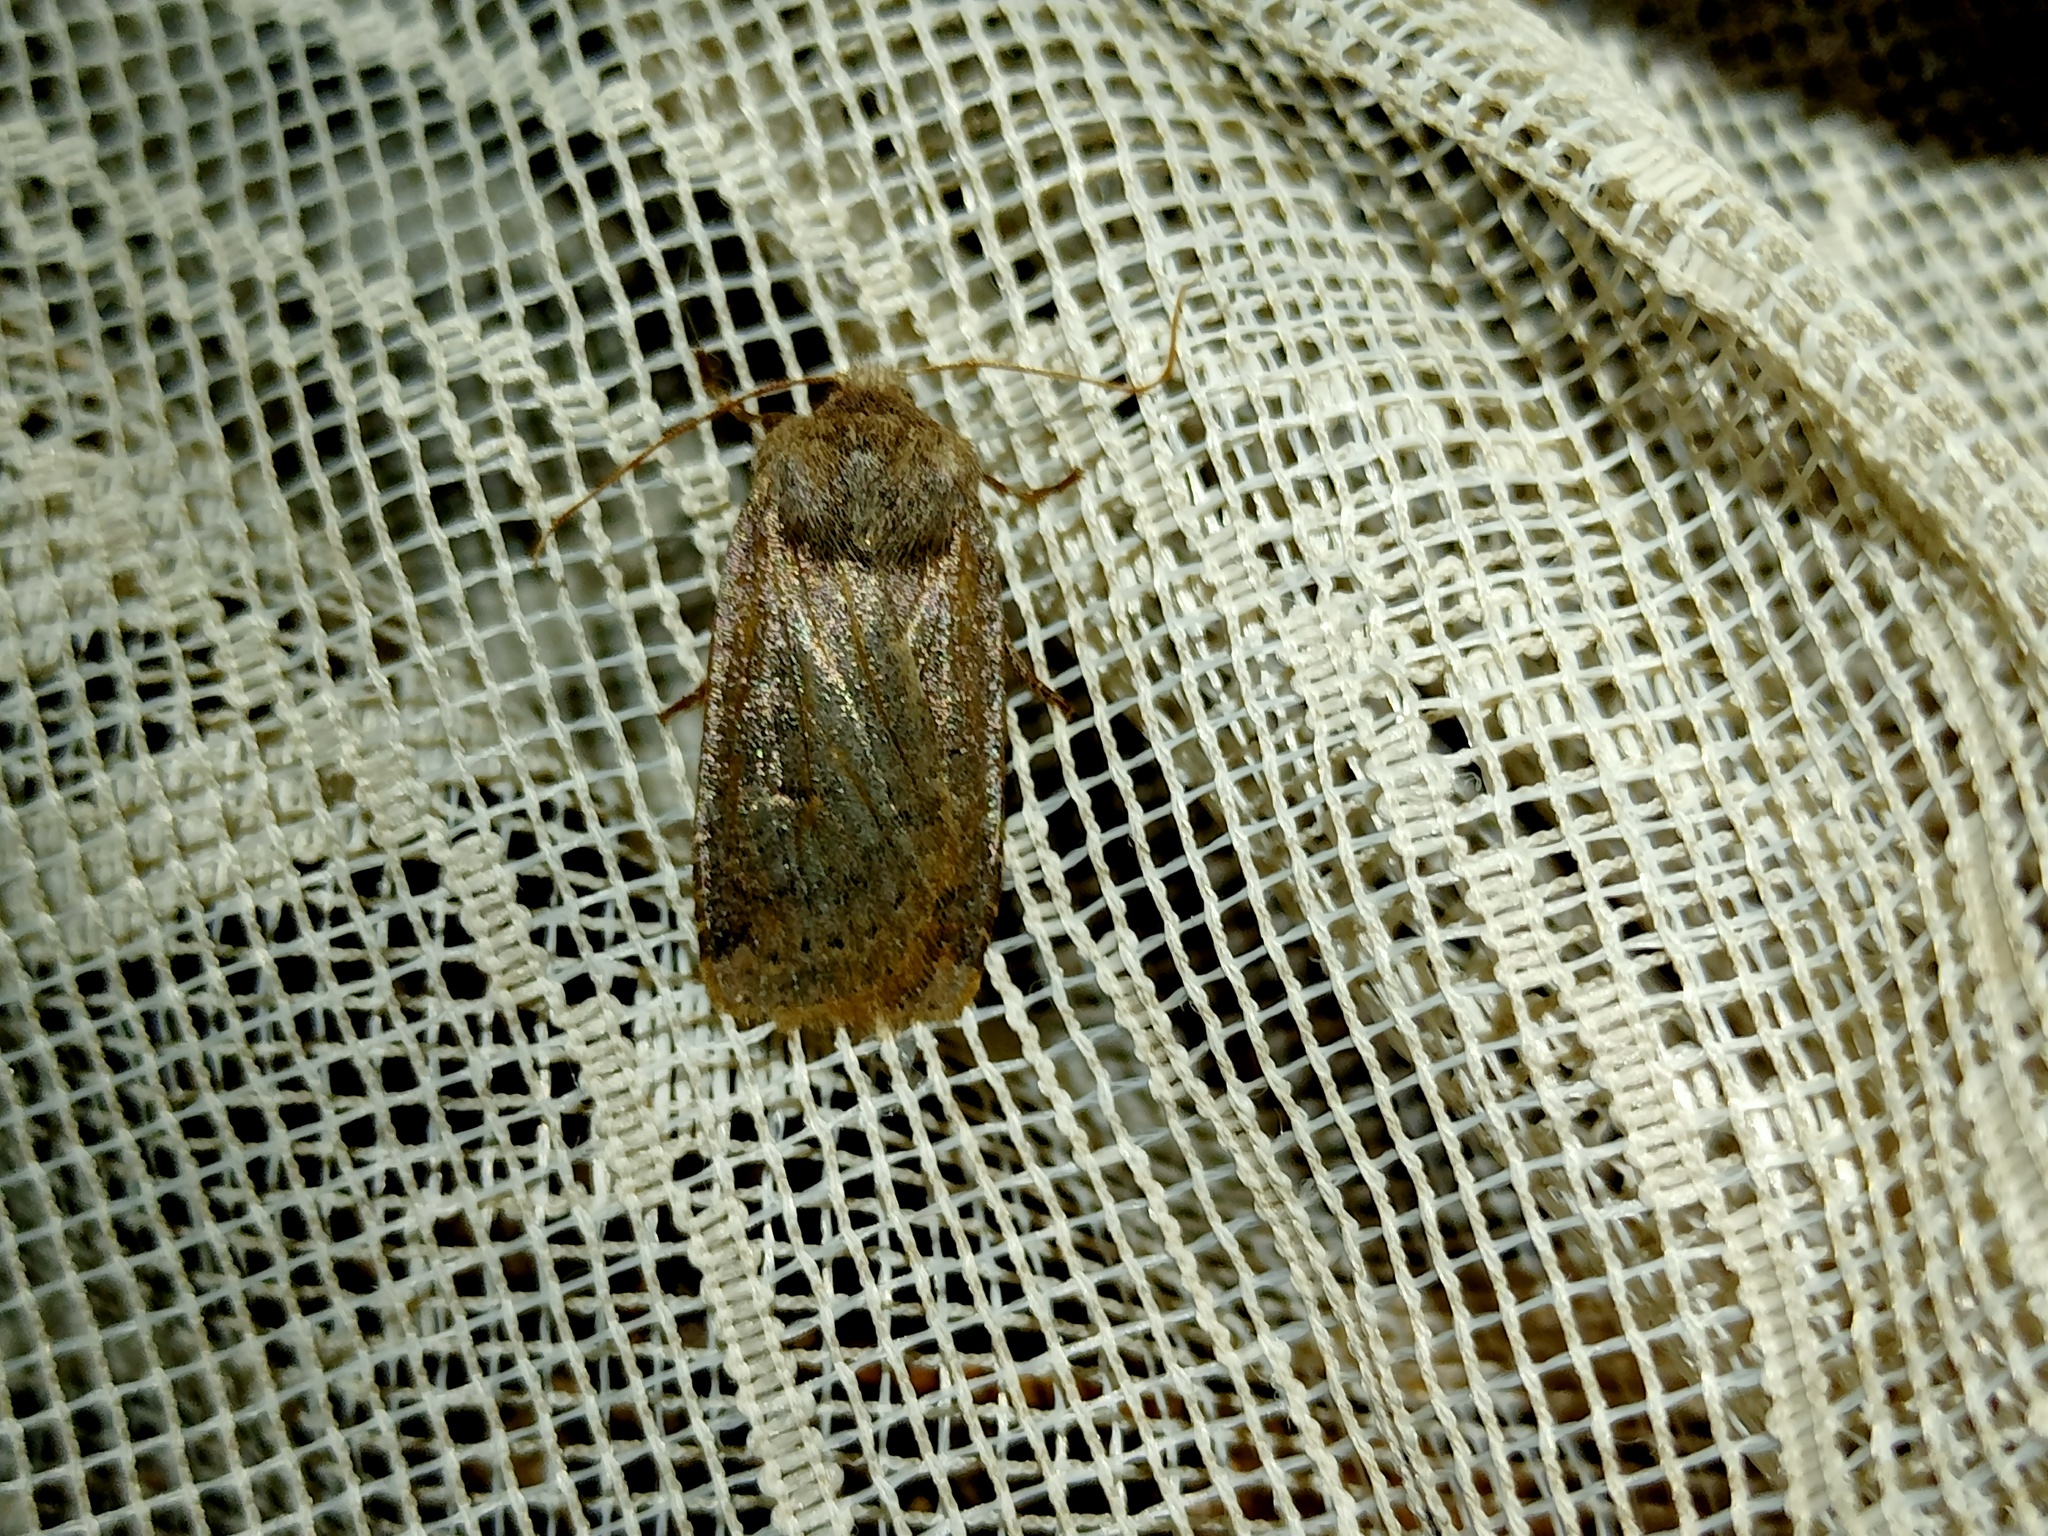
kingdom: Animalia
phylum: Arthropoda
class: Insecta
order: Lepidoptera
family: Noctuidae
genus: Conistra
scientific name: Conistra vaccinii
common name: Chestnut
